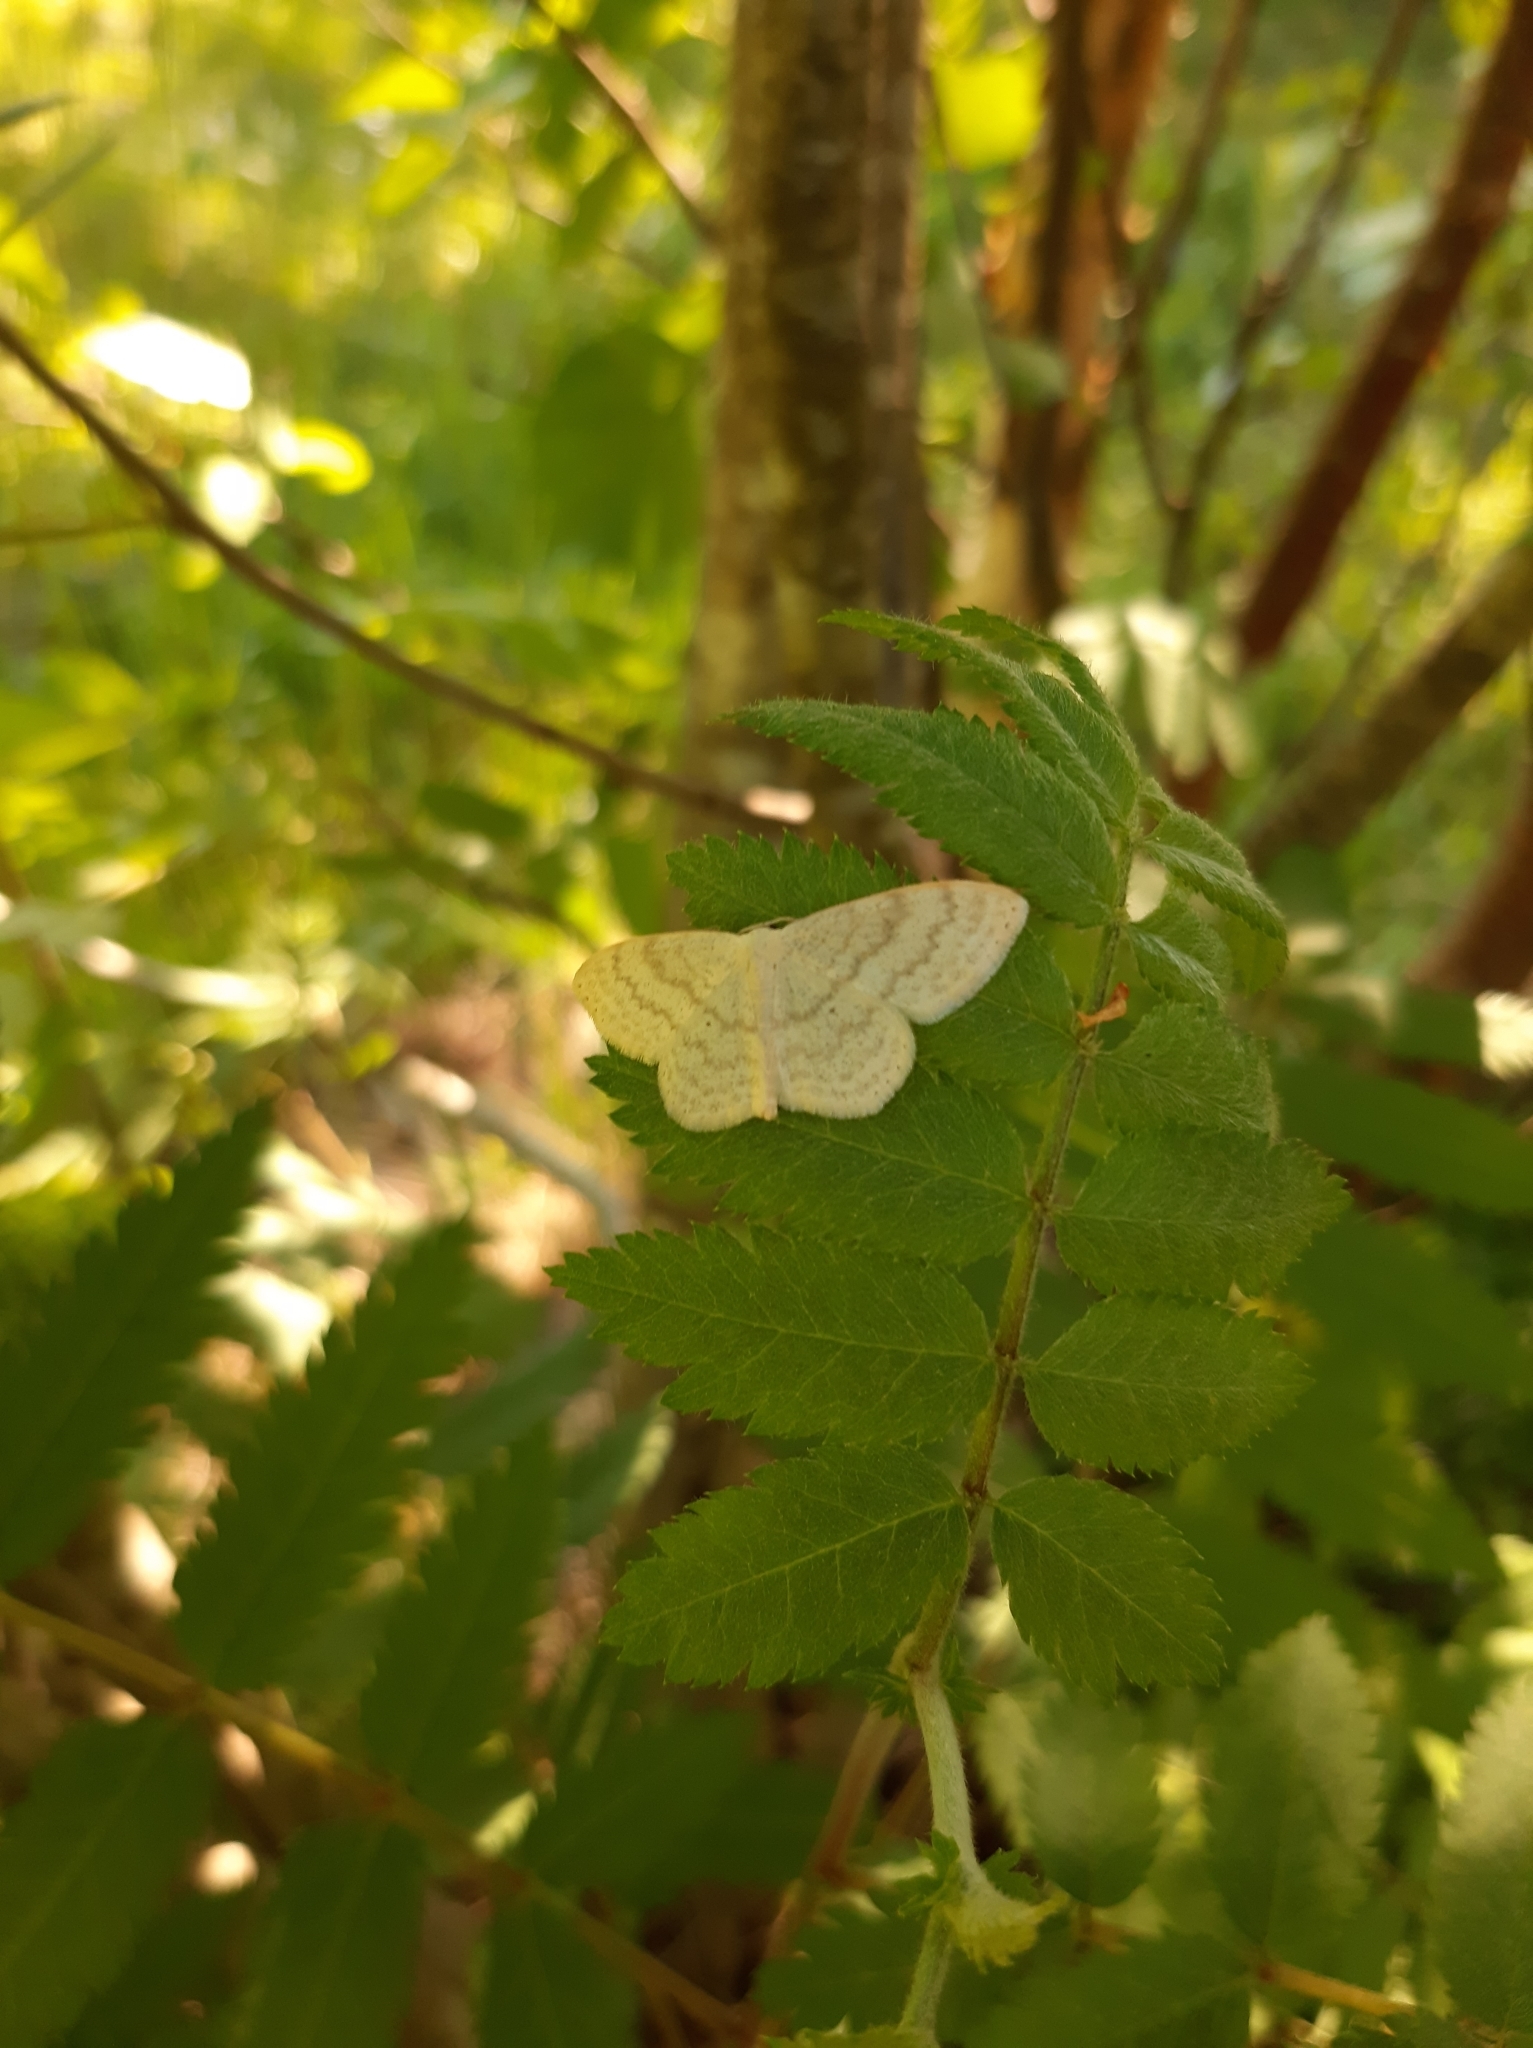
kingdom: Animalia
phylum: Arthropoda
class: Insecta
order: Lepidoptera
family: Geometridae
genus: Scopula
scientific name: Scopula floslactata
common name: Cream wave
